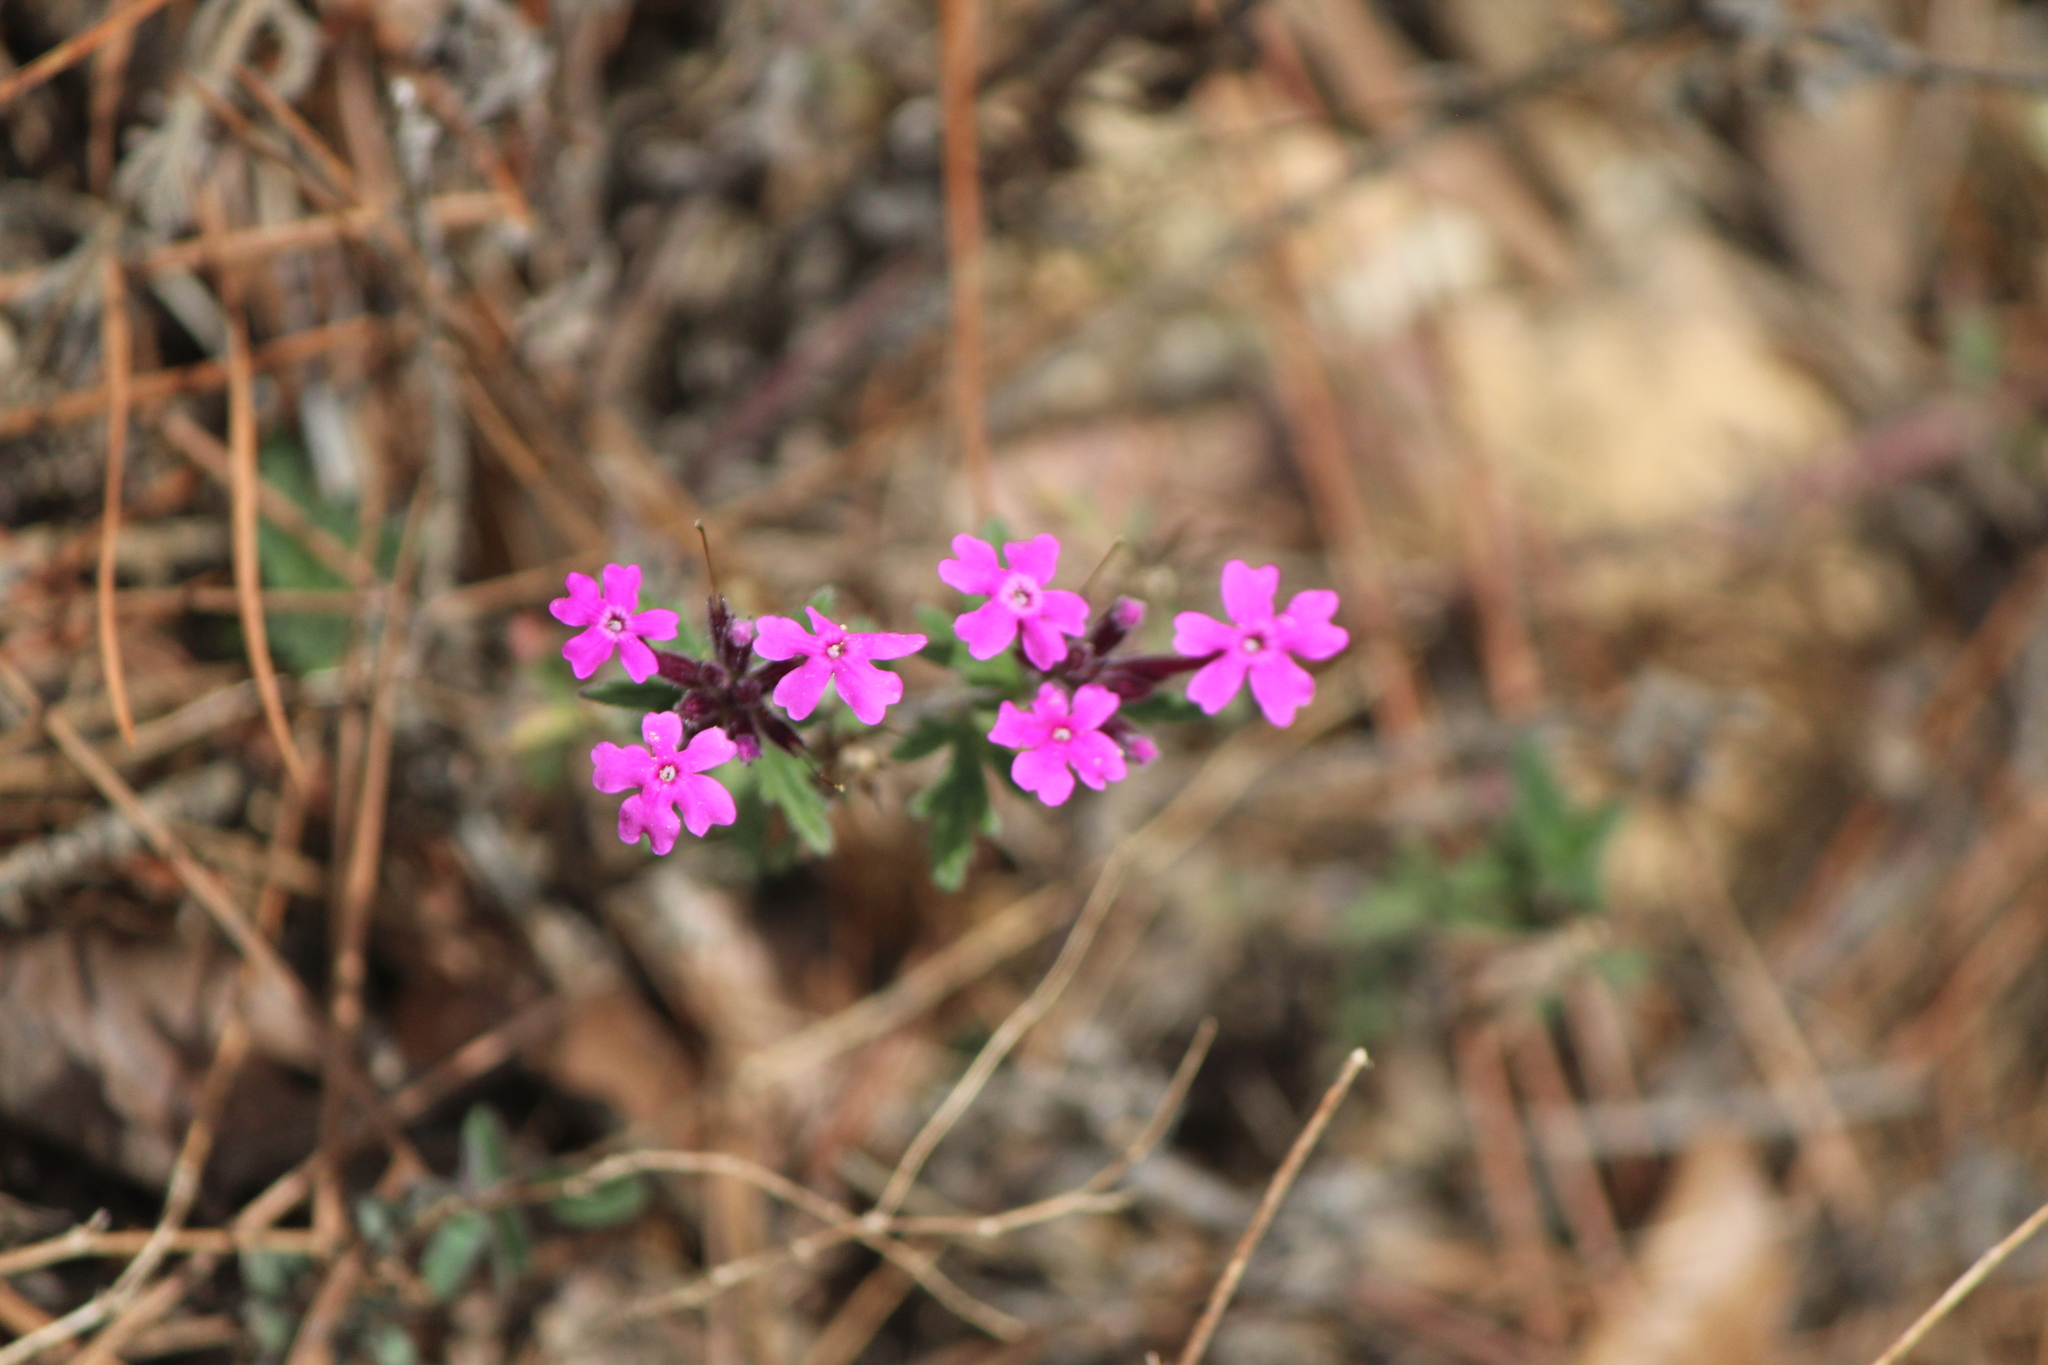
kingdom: Plantae
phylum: Tracheophyta
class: Magnoliopsida
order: Lamiales
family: Verbenaceae
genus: Verbena
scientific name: Verbena bipinnatifida
